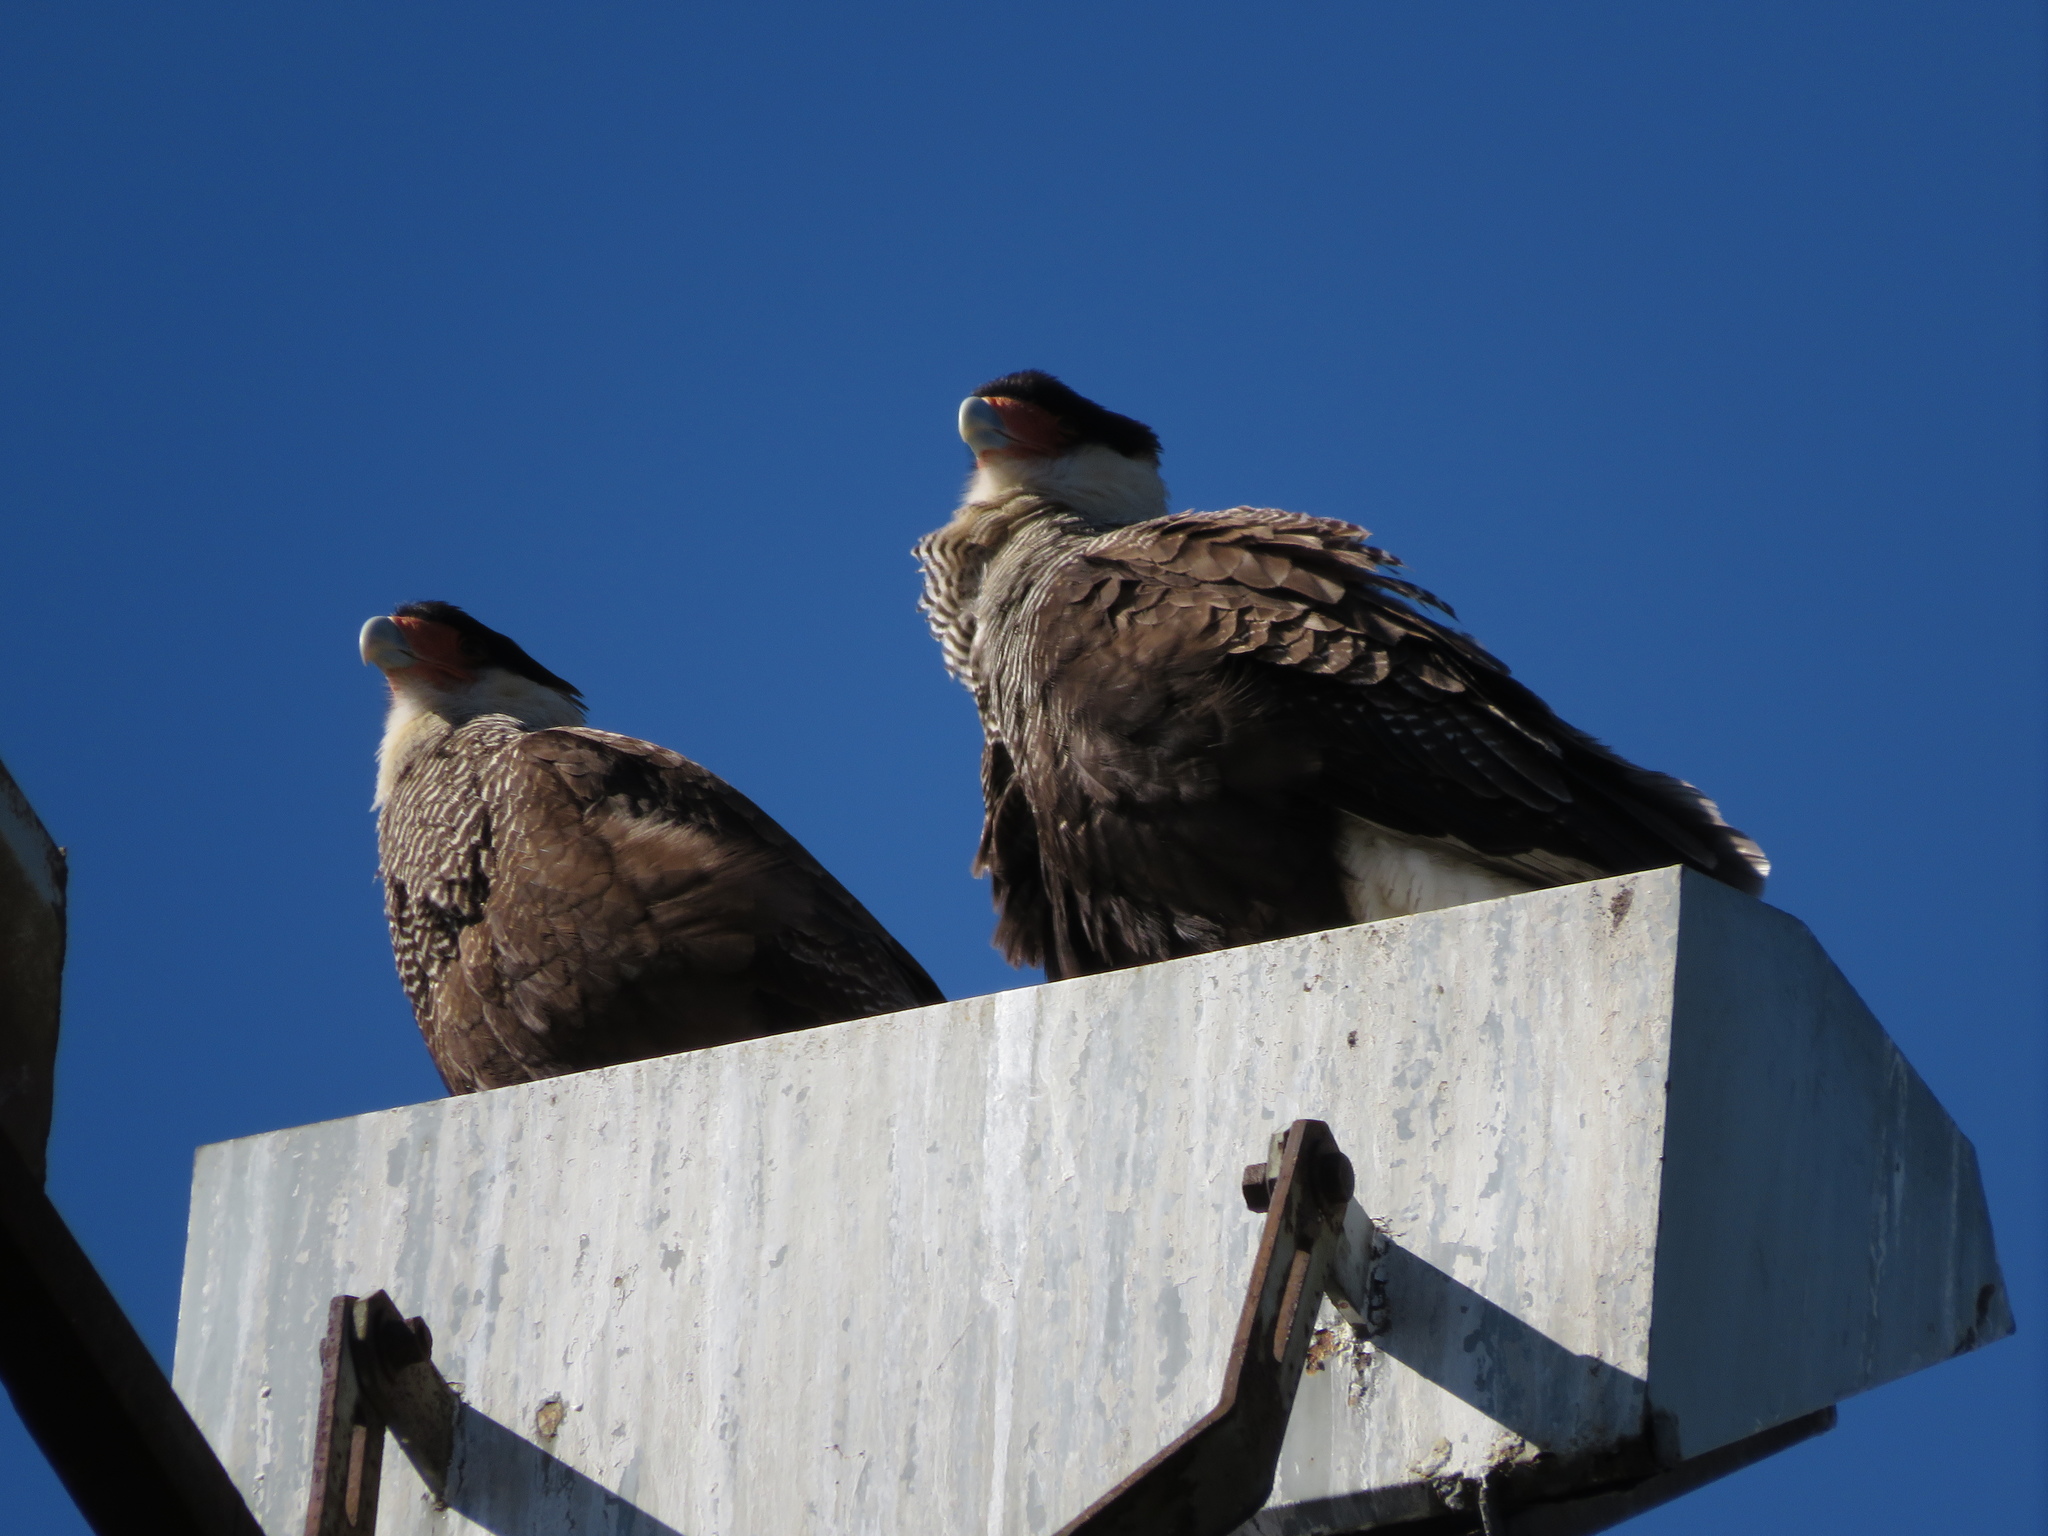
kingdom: Animalia
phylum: Chordata
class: Aves
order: Falconiformes
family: Falconidae
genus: Caracara
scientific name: Caracara plancus
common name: Southern caracara
